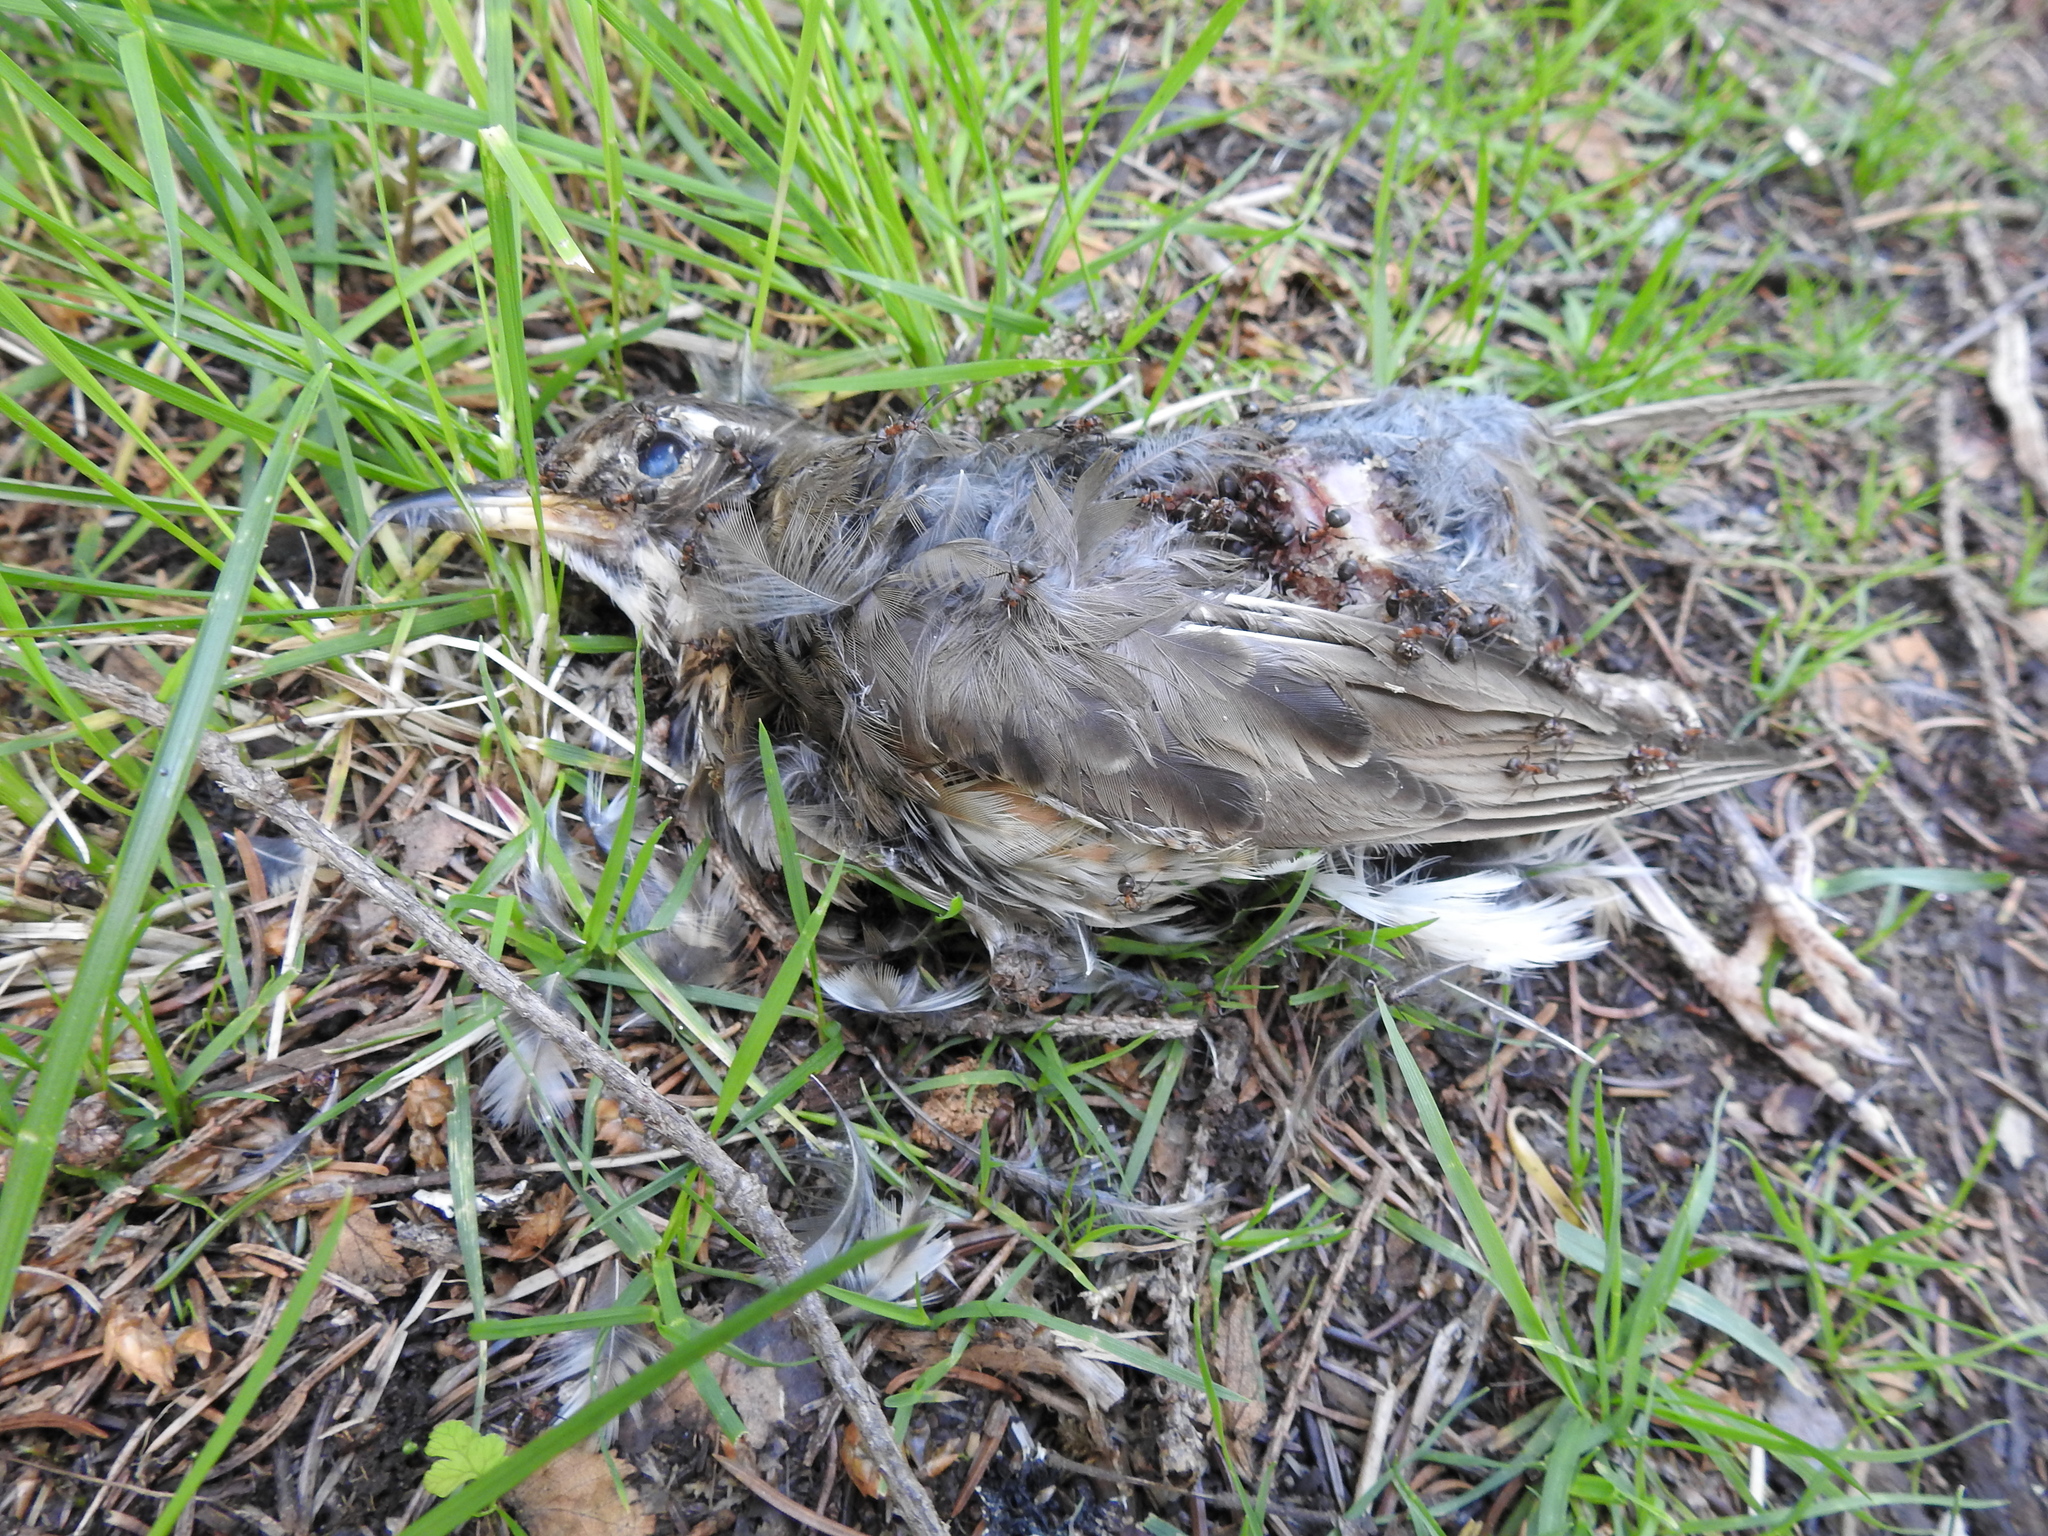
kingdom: Animalia
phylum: Chordata
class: Aves
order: Passeriformes
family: Turdidae
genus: Turdus
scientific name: Turdus iliacus
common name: Redwing
